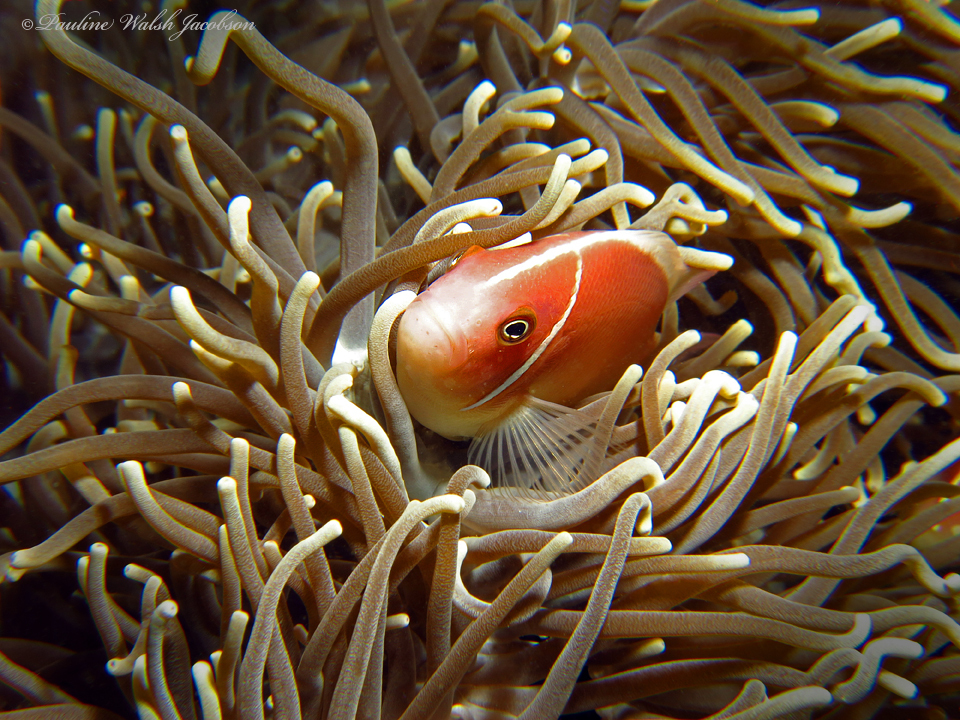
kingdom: Animalia
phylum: Chordata
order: Perciformes
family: Pomacentridae
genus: Amphiprion
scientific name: Amphiprion perideraion
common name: Pink anemonefish
